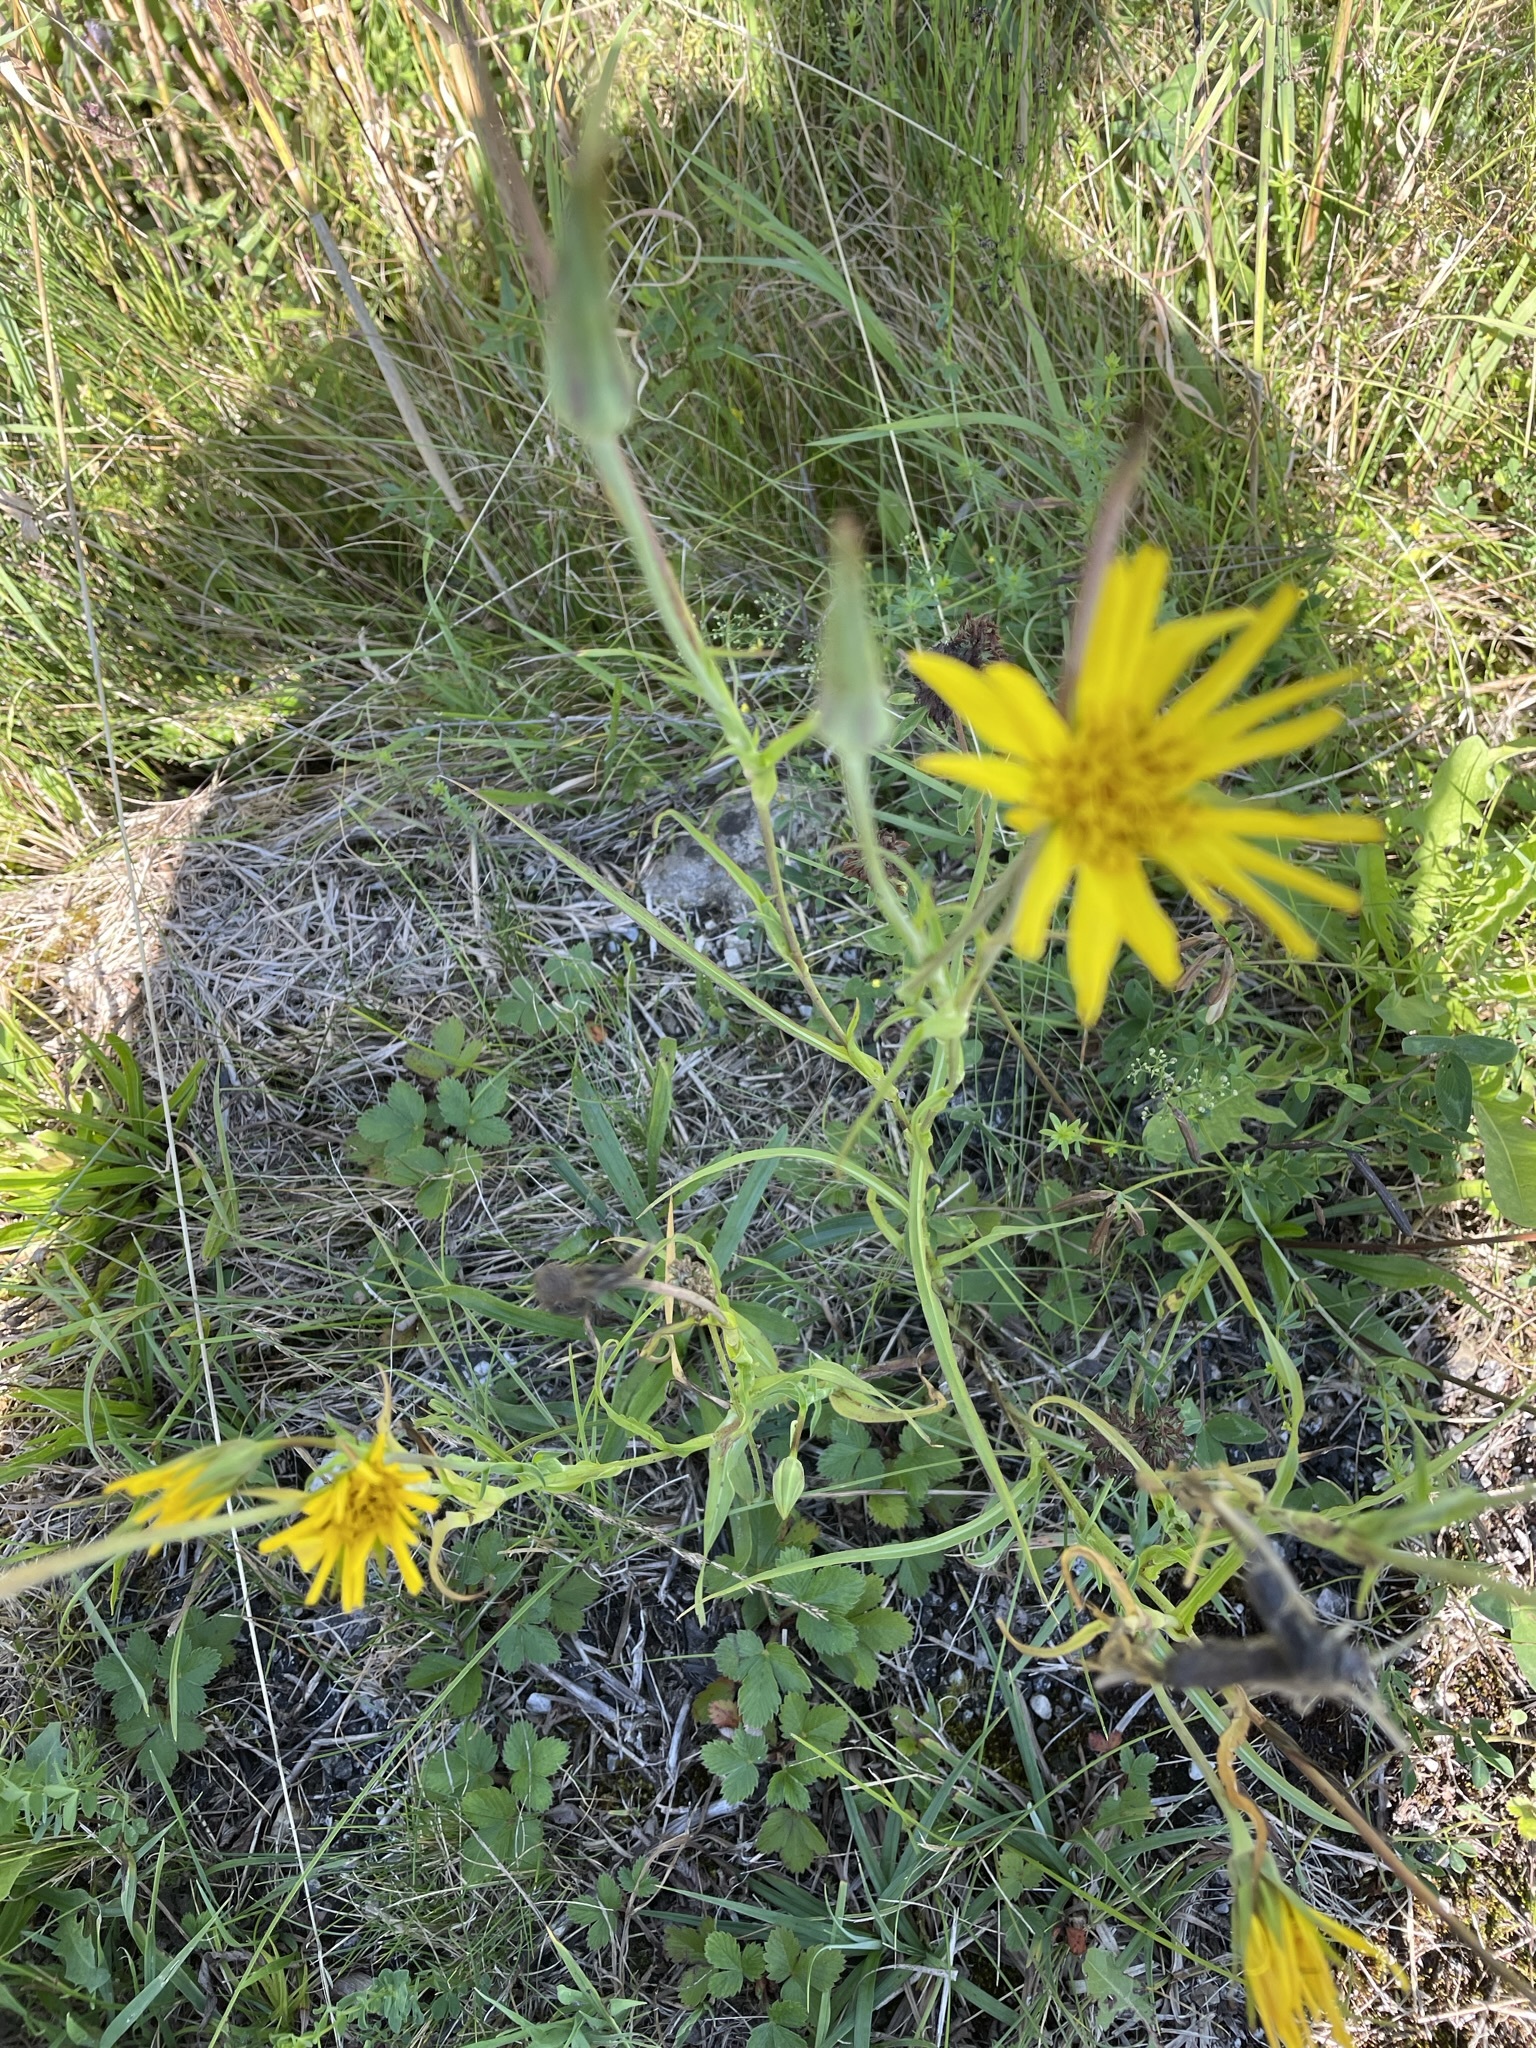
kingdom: Plantae
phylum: Tracheophyta
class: Magnoliopsida
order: Asterales
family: Asteraceae
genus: Tragopogon
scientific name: Tragopogon orientalis
